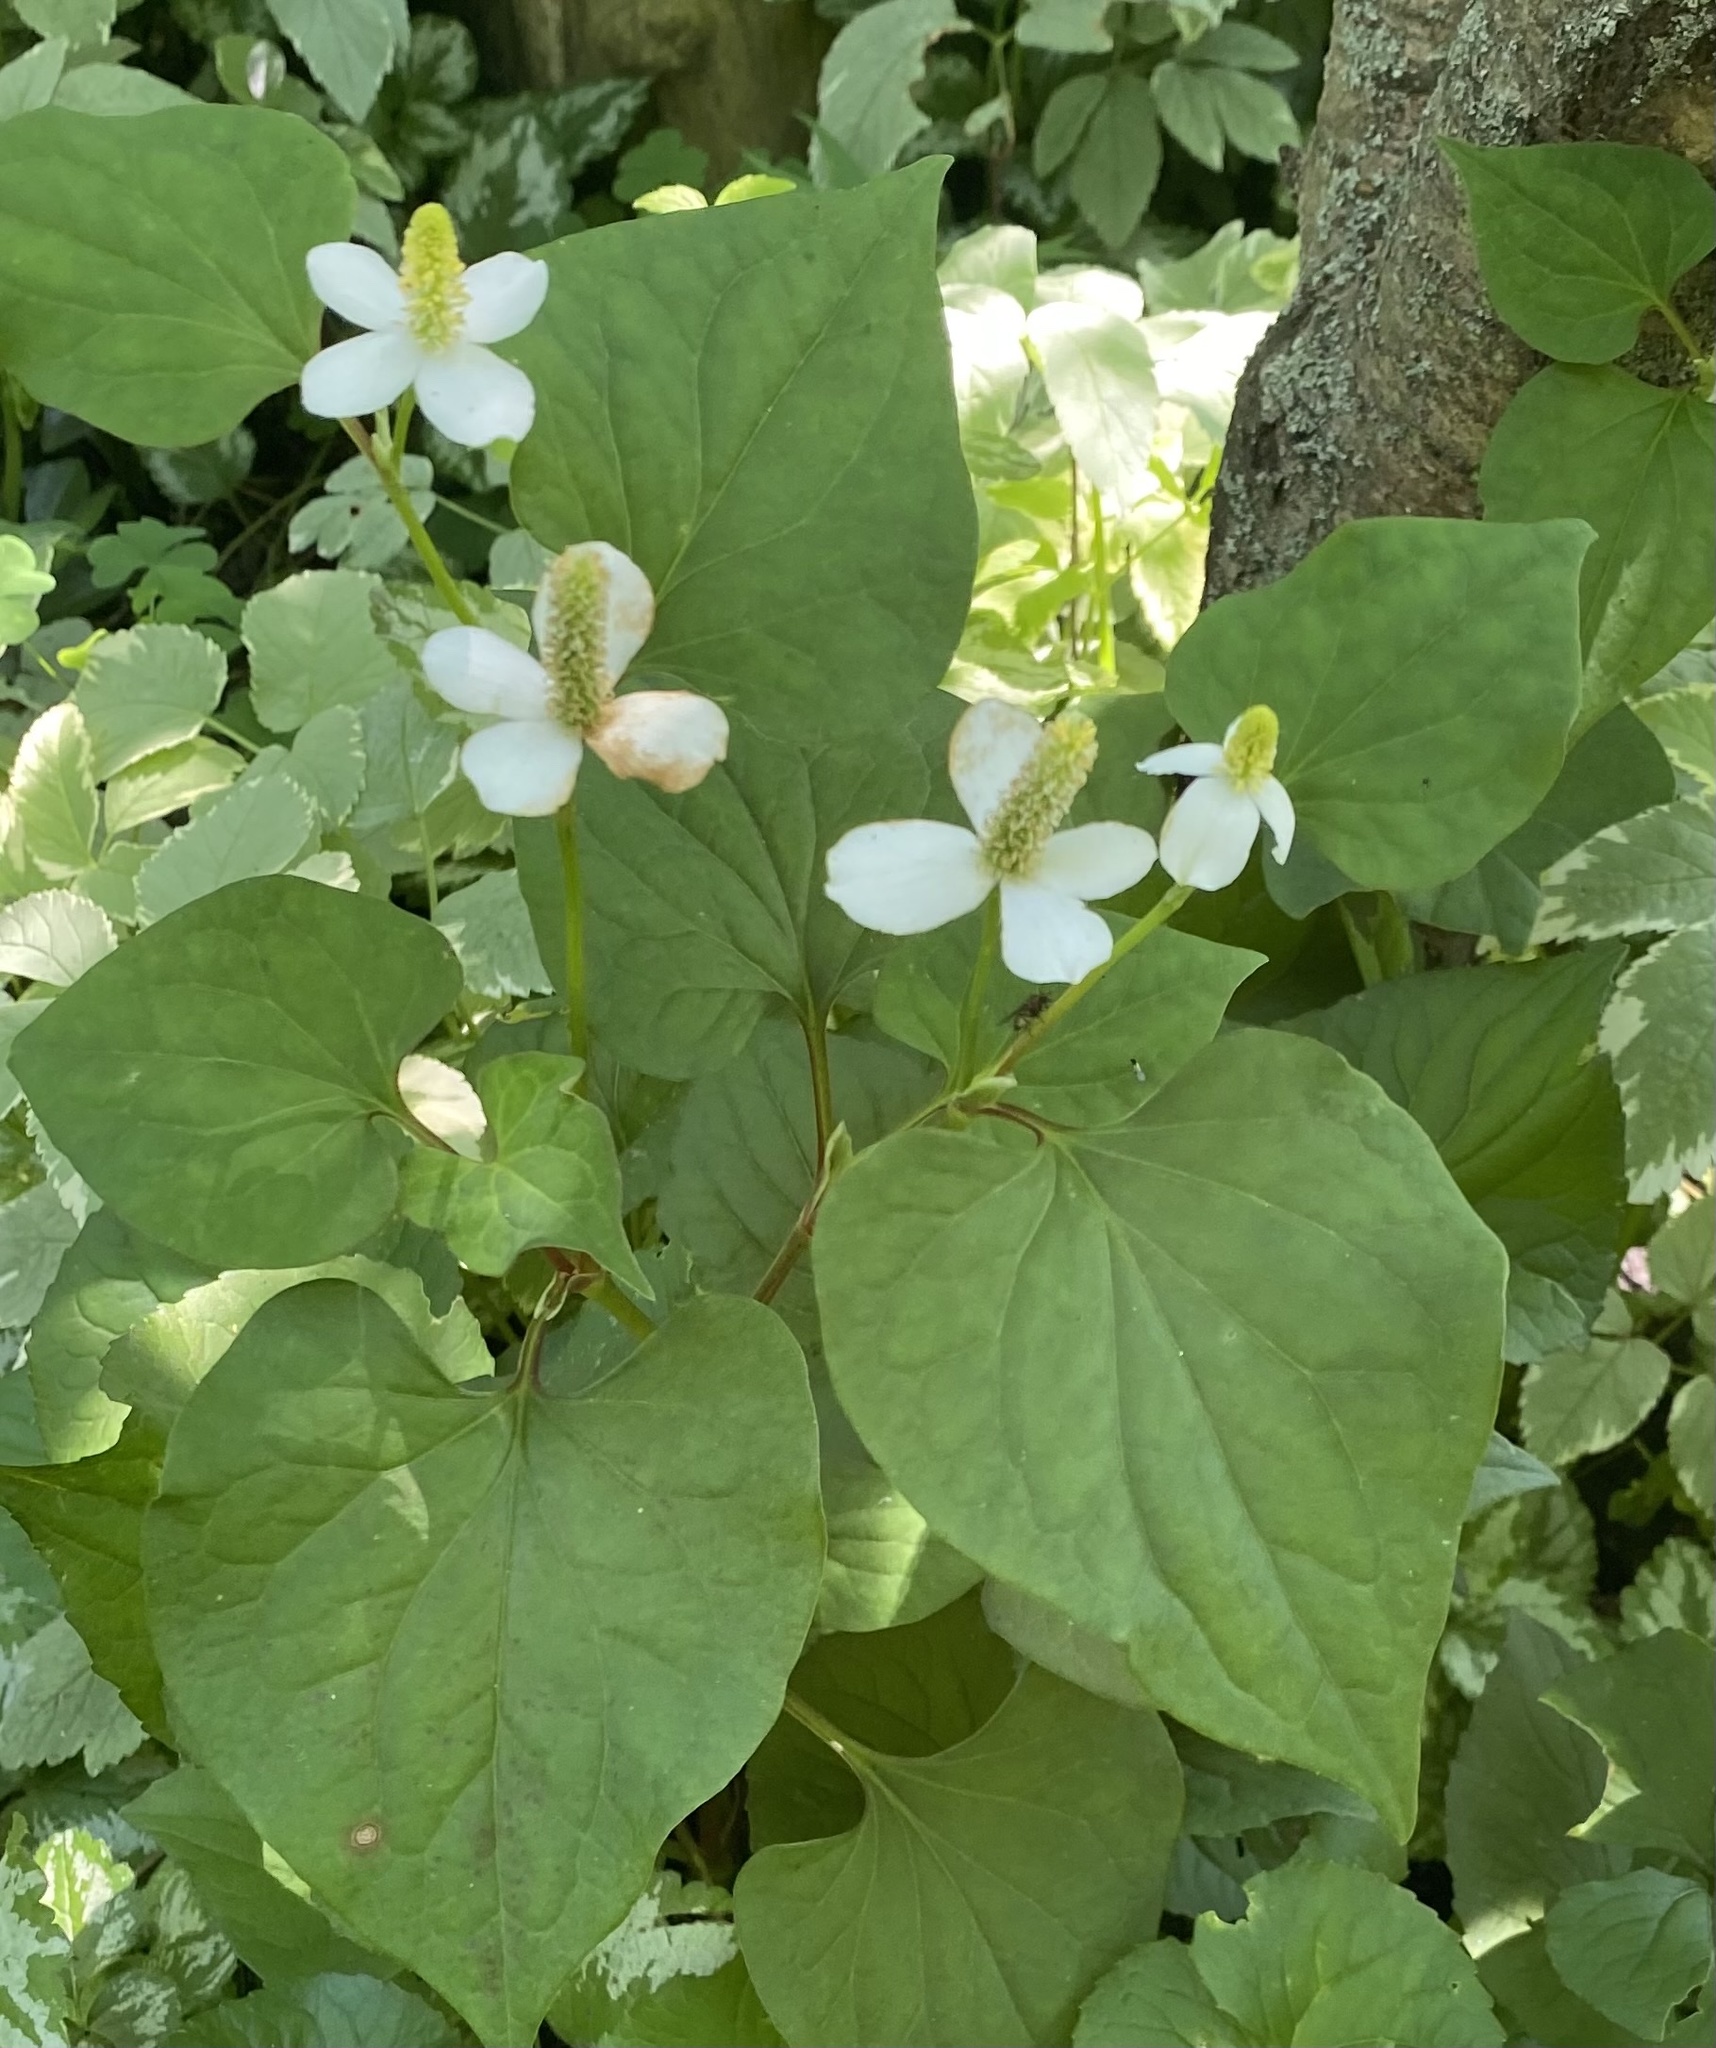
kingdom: Plantae
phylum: Tracheophyta
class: Magnoliopsida
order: Piperales
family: Saururaceae
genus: Houttuynia
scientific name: Houttuynia cordata
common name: Chameleon
